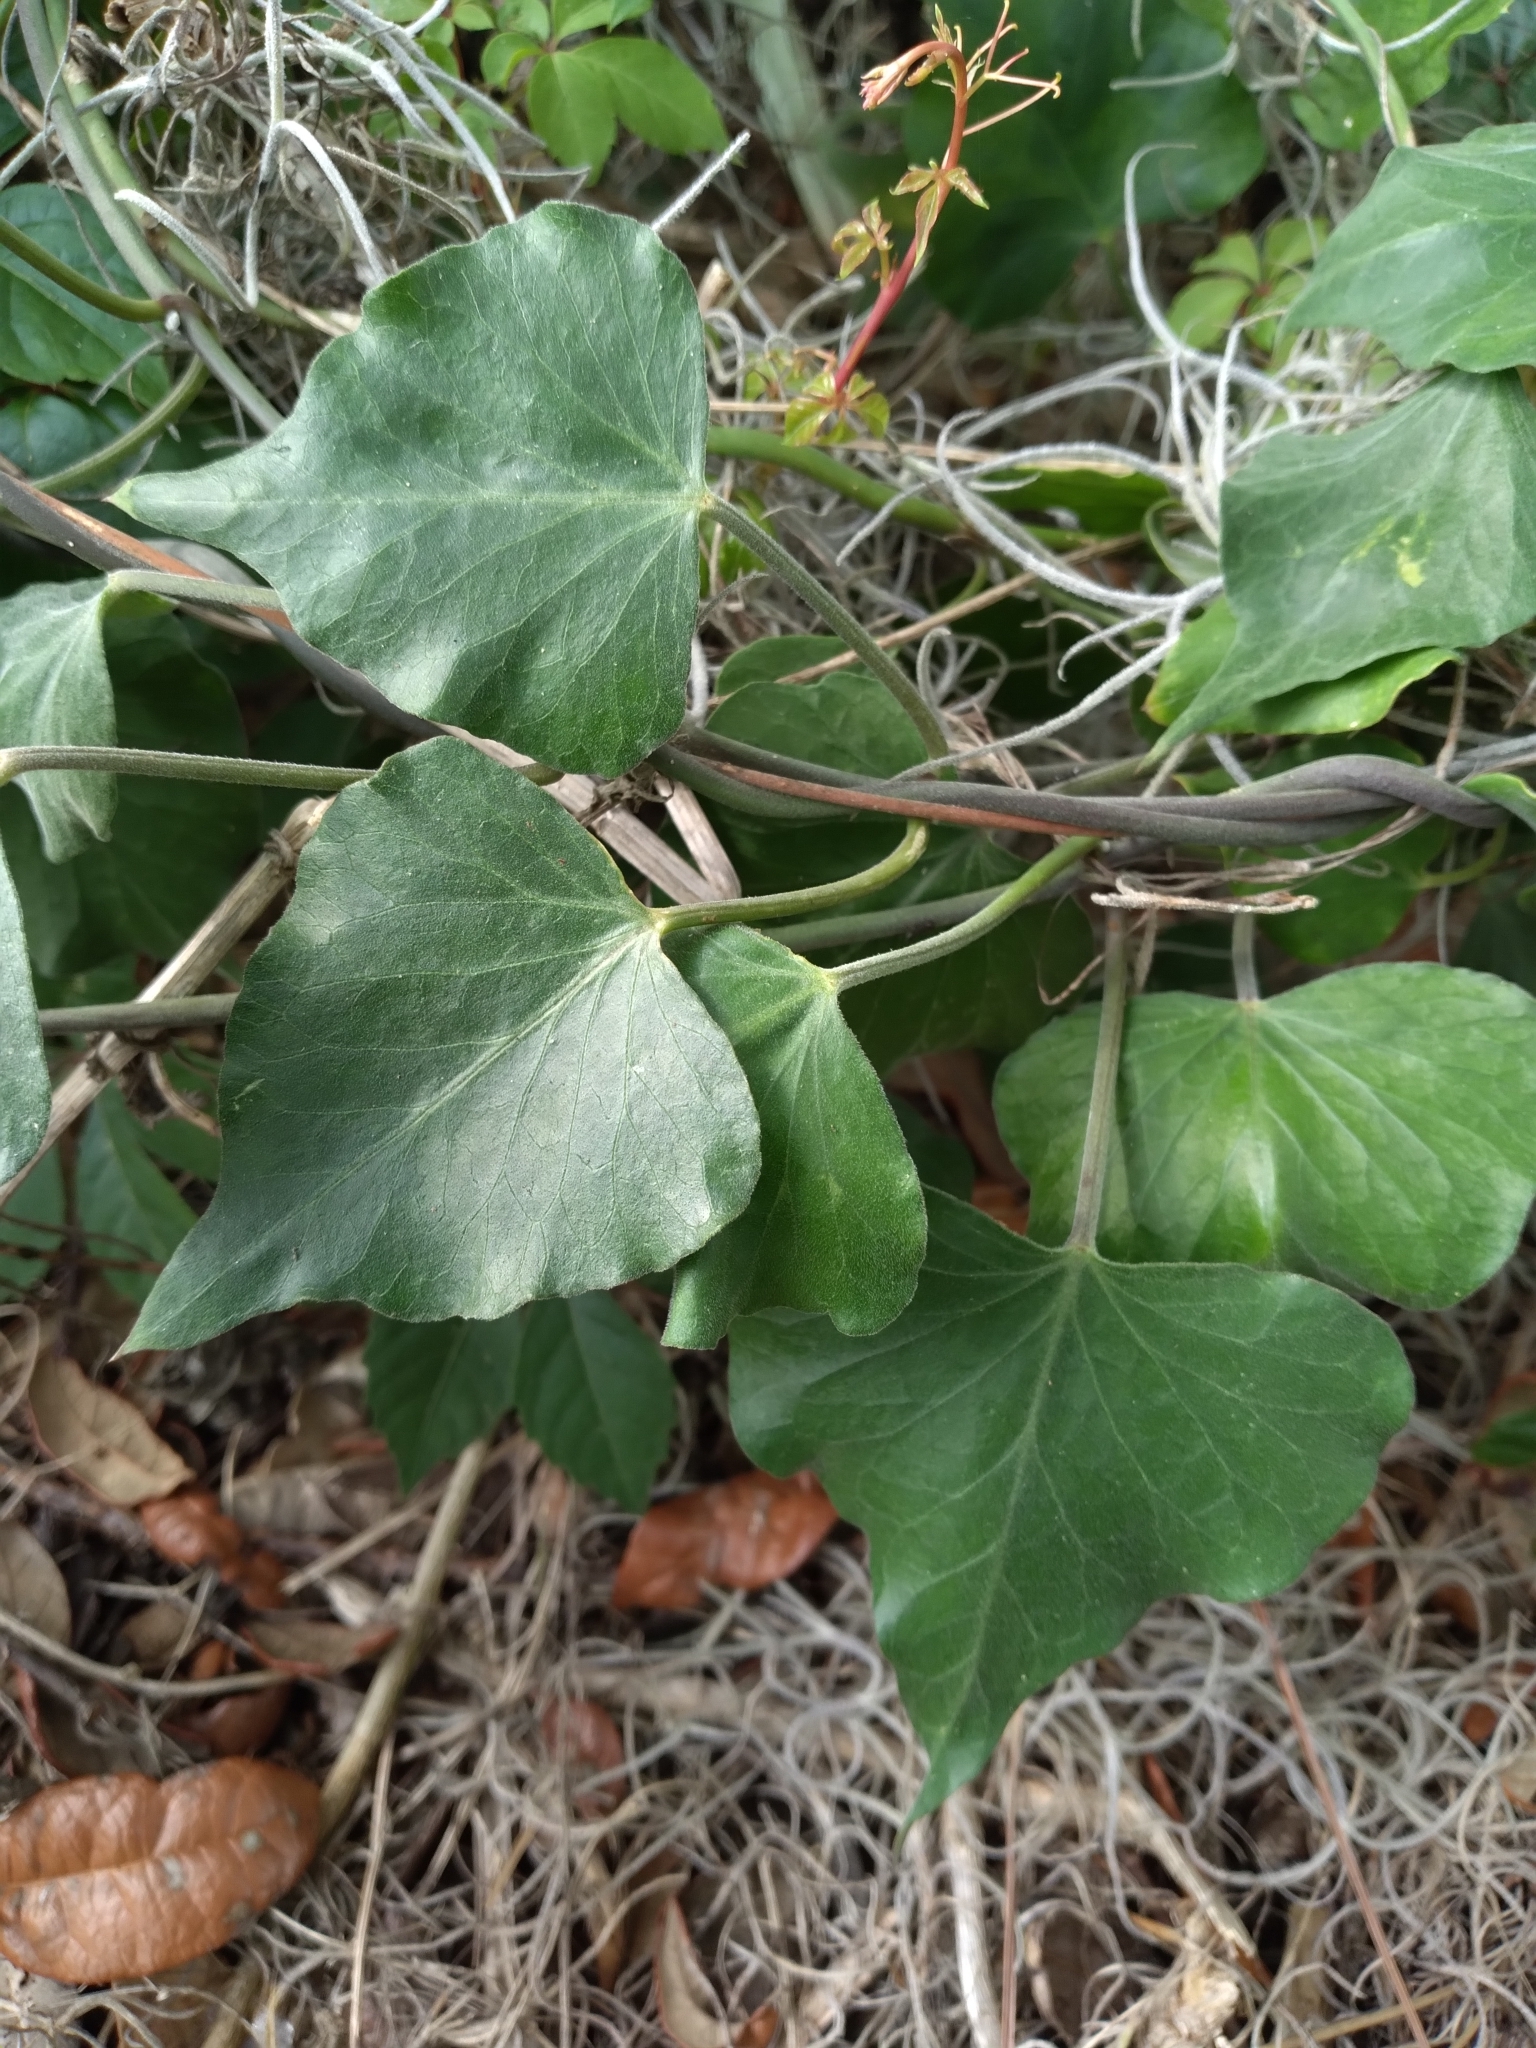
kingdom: Plantae
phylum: Tracheophyta
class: Magnoliopsida
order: Gentianales
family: Apocynaceae
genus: Araujia
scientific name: Araujia odorata
